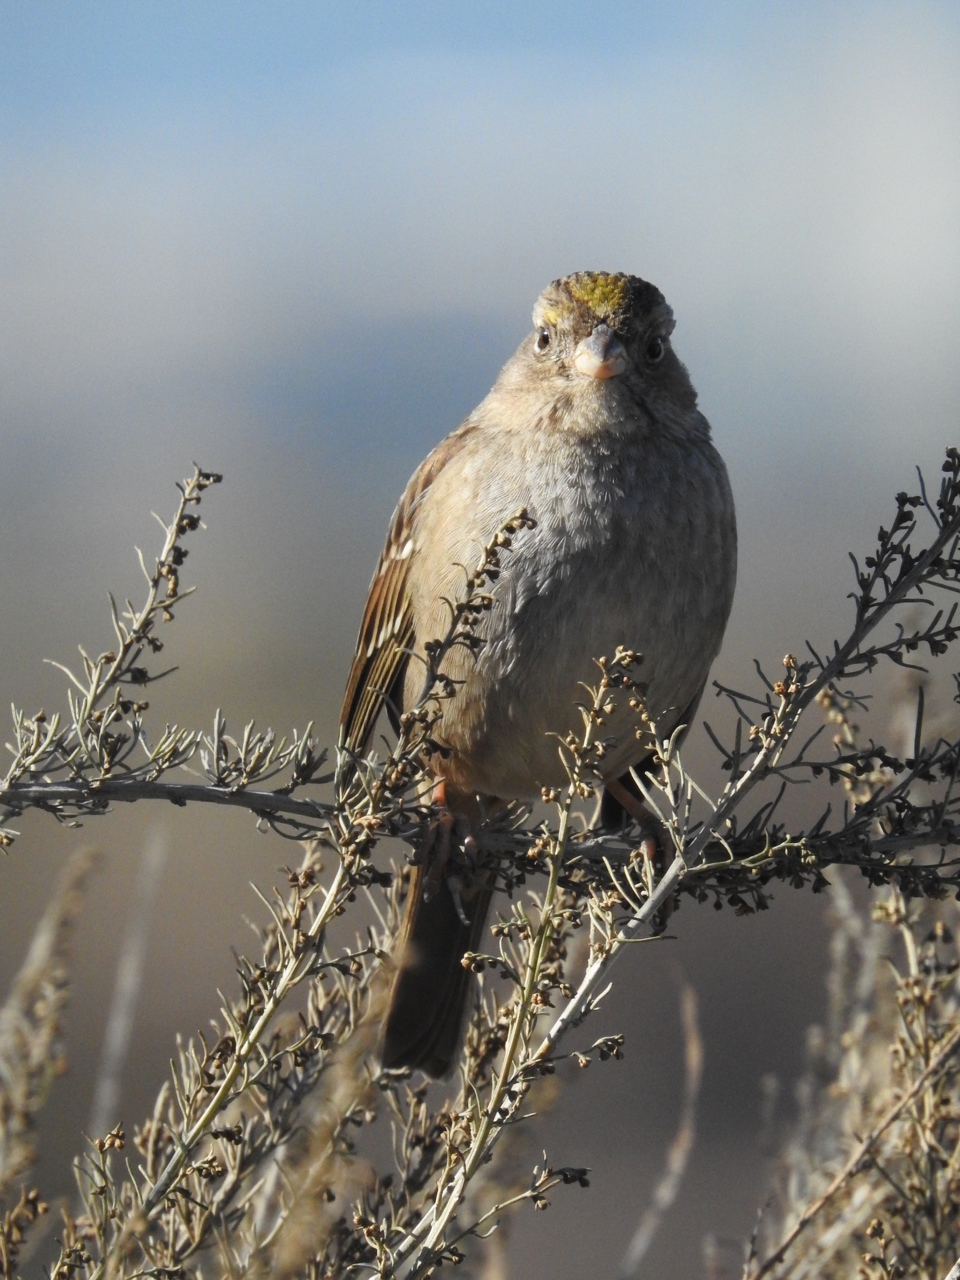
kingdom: Animalia
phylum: Chordata
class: Aves
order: Passeriformes
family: Passerellidae
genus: Zonotrichia
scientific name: Zonotrichia atricapilla
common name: Golden-crowned sparrow
